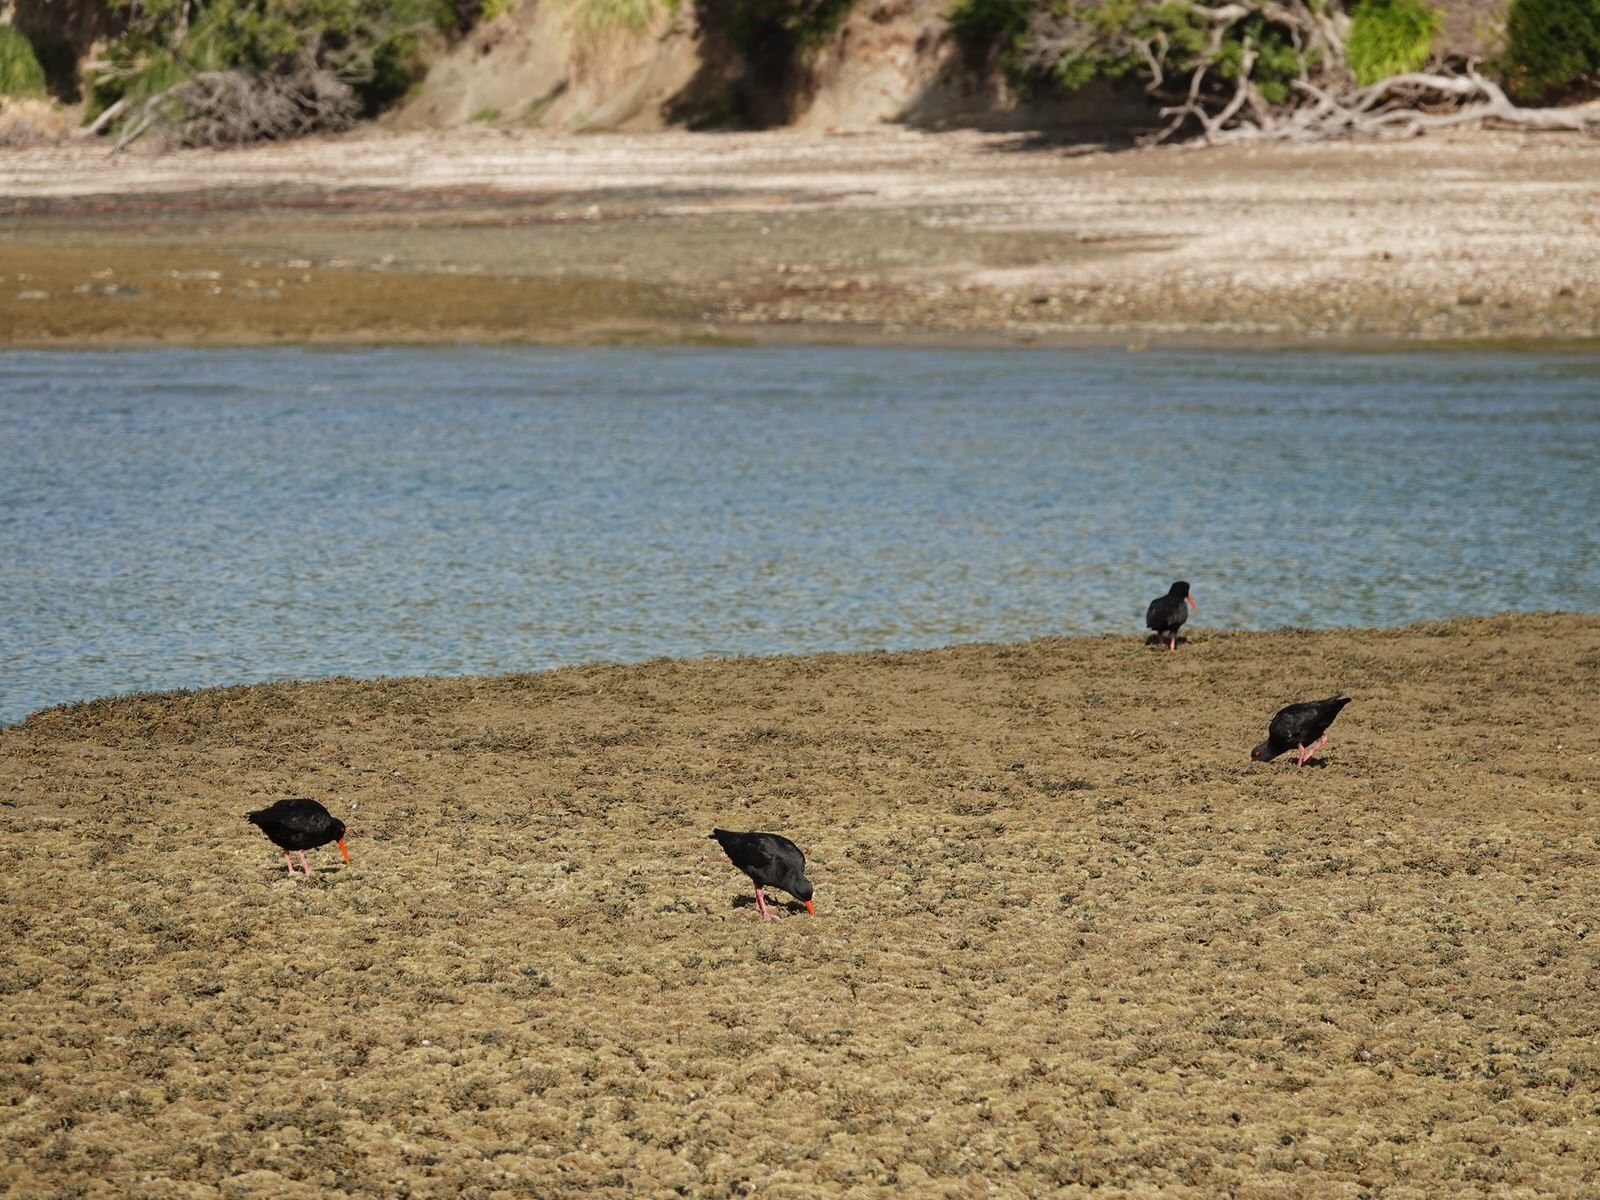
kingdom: Animalia
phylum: Chordata
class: Aves
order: Charadriiformes
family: Haematopodidae
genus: Haematopus
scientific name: Haematopus unicolor
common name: Variable oystercatcher
